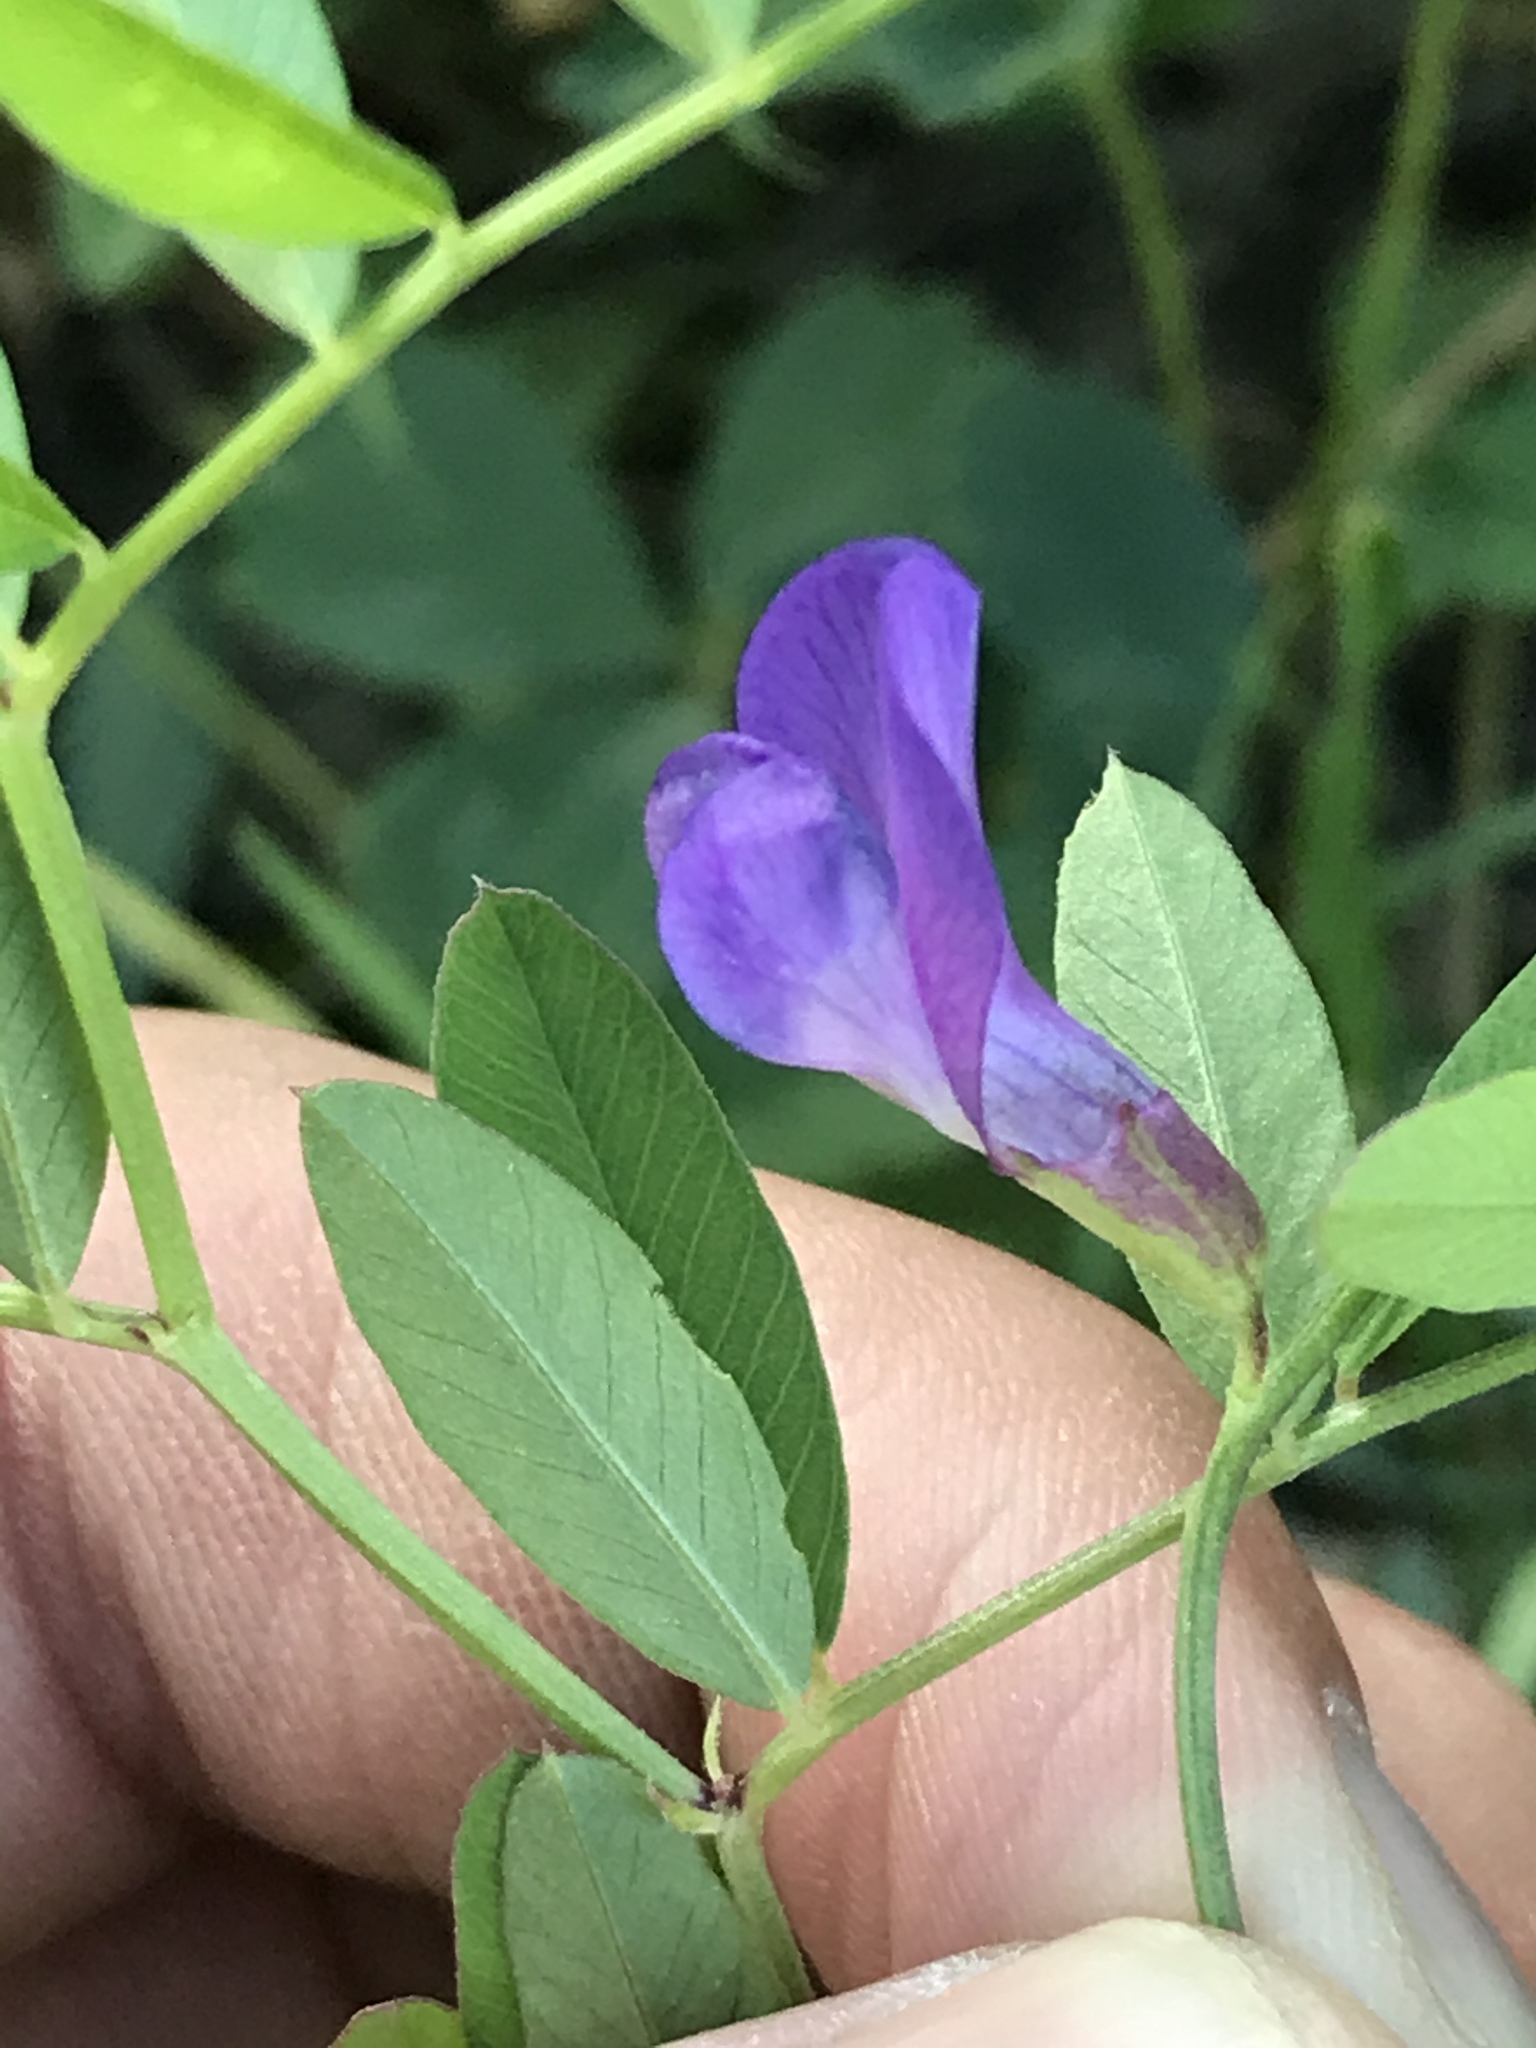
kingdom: Plantae
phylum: Tracheophyta
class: Magnoliopsida
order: Fabales
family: Fabaceae
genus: Vicia
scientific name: Vicia americana
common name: American vetch
